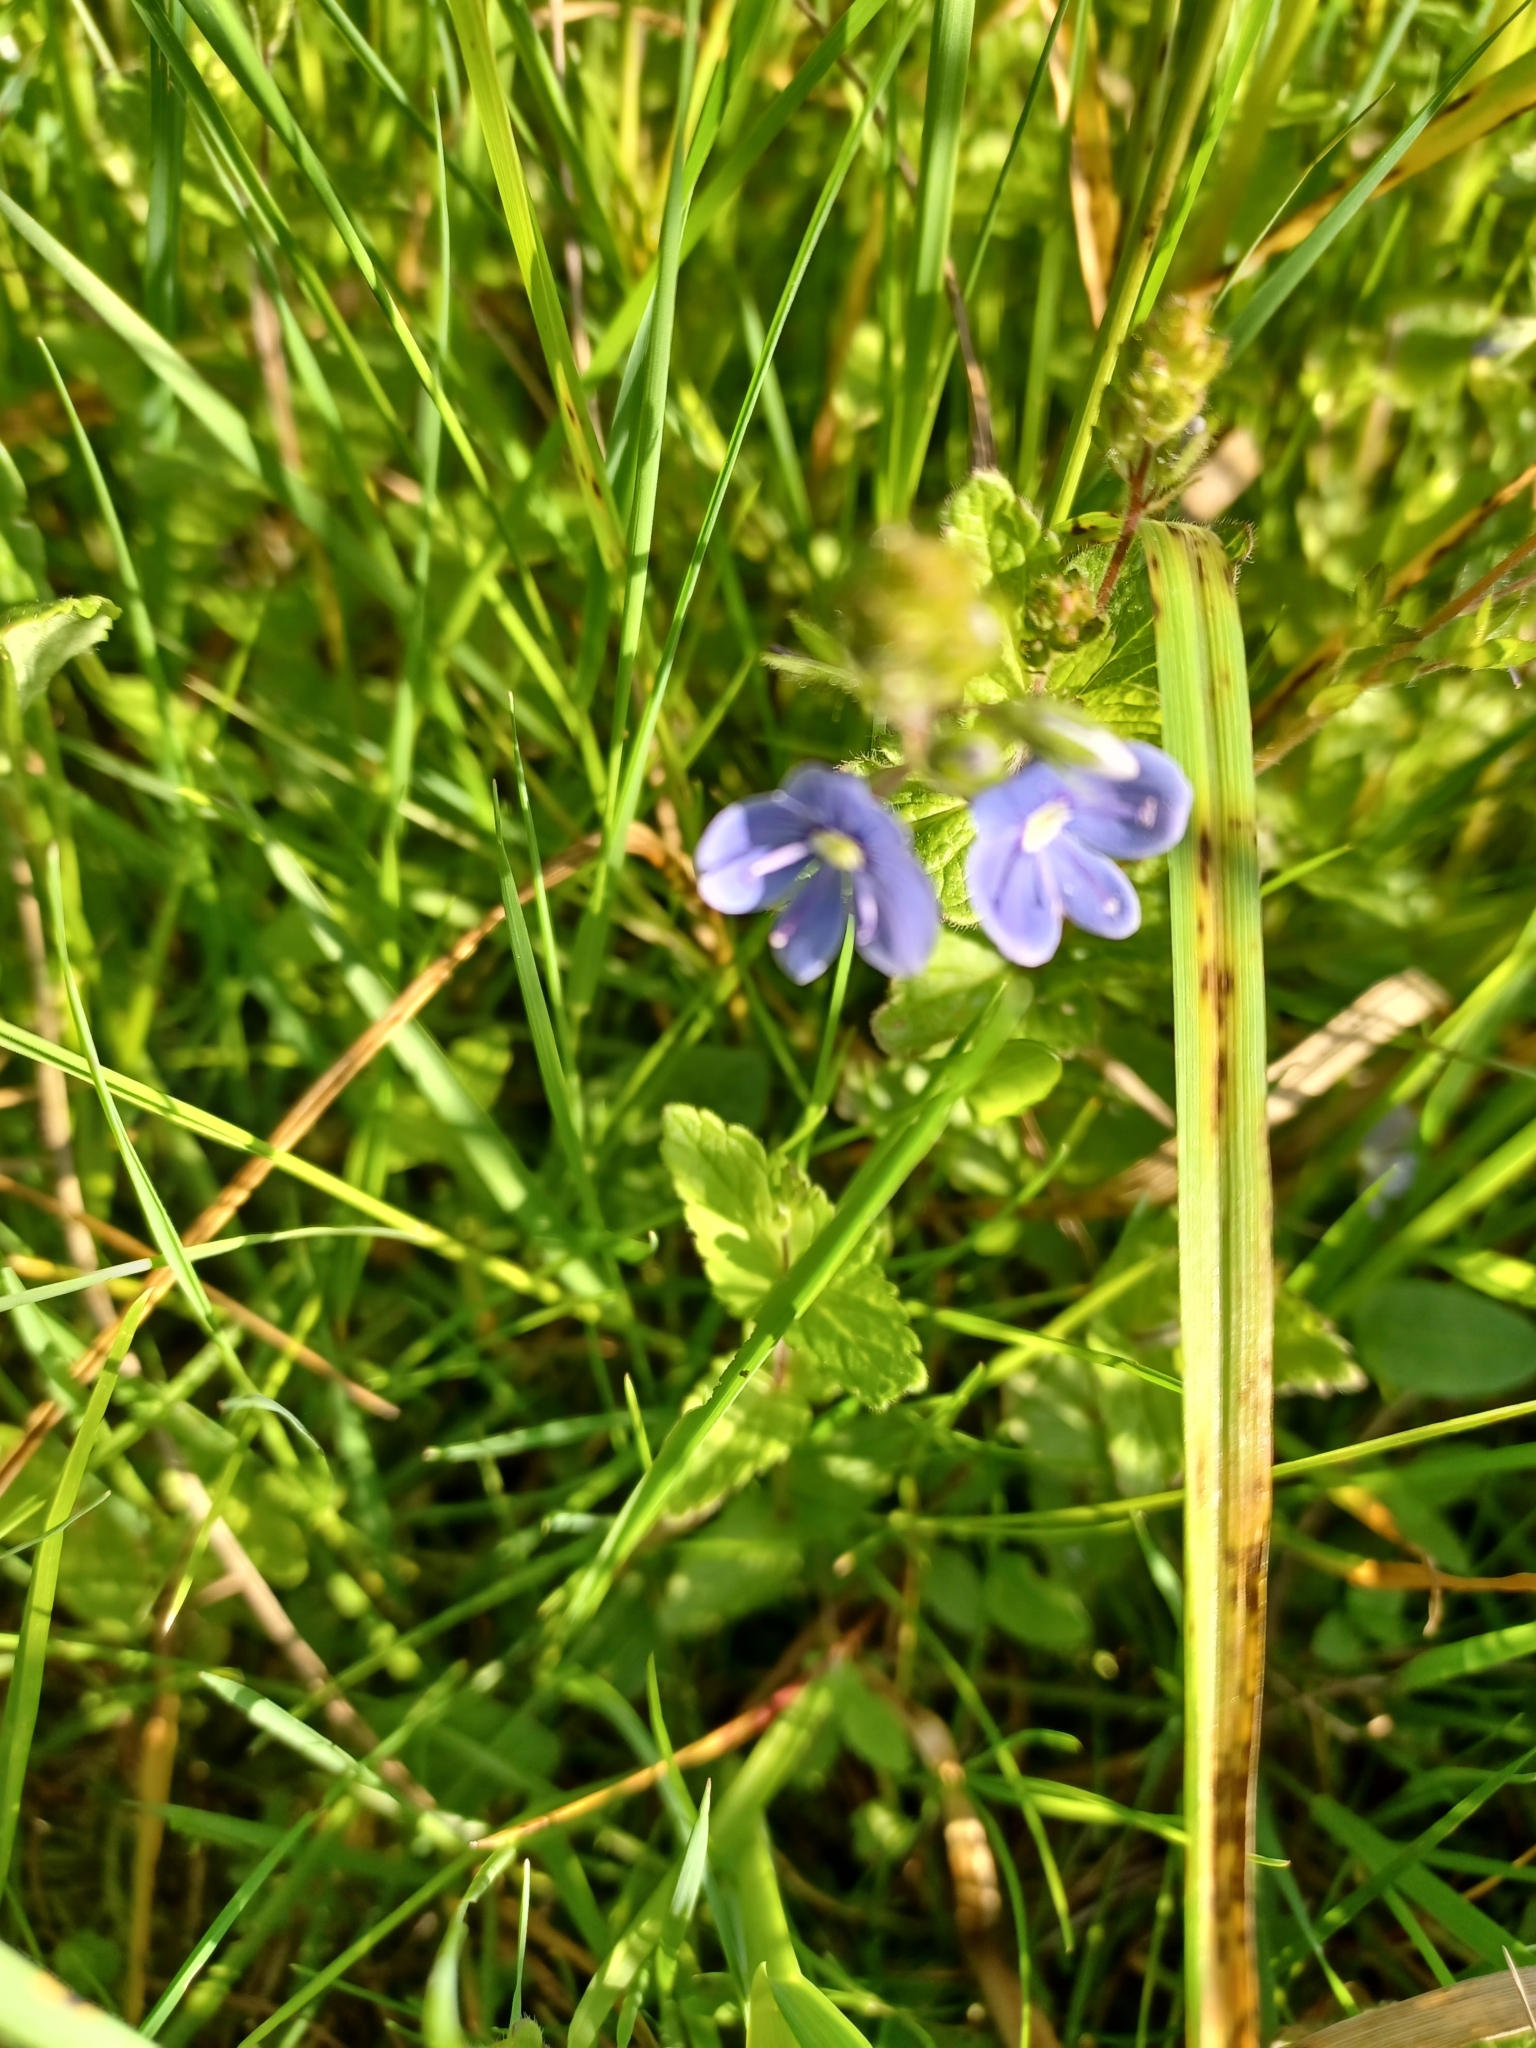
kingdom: Plantae
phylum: Tracheophyta
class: Magnoliopsida
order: Lamiales
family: Plantaginaceae
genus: Veronica
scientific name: Veronica chamaedrys
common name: Germander speedwell
